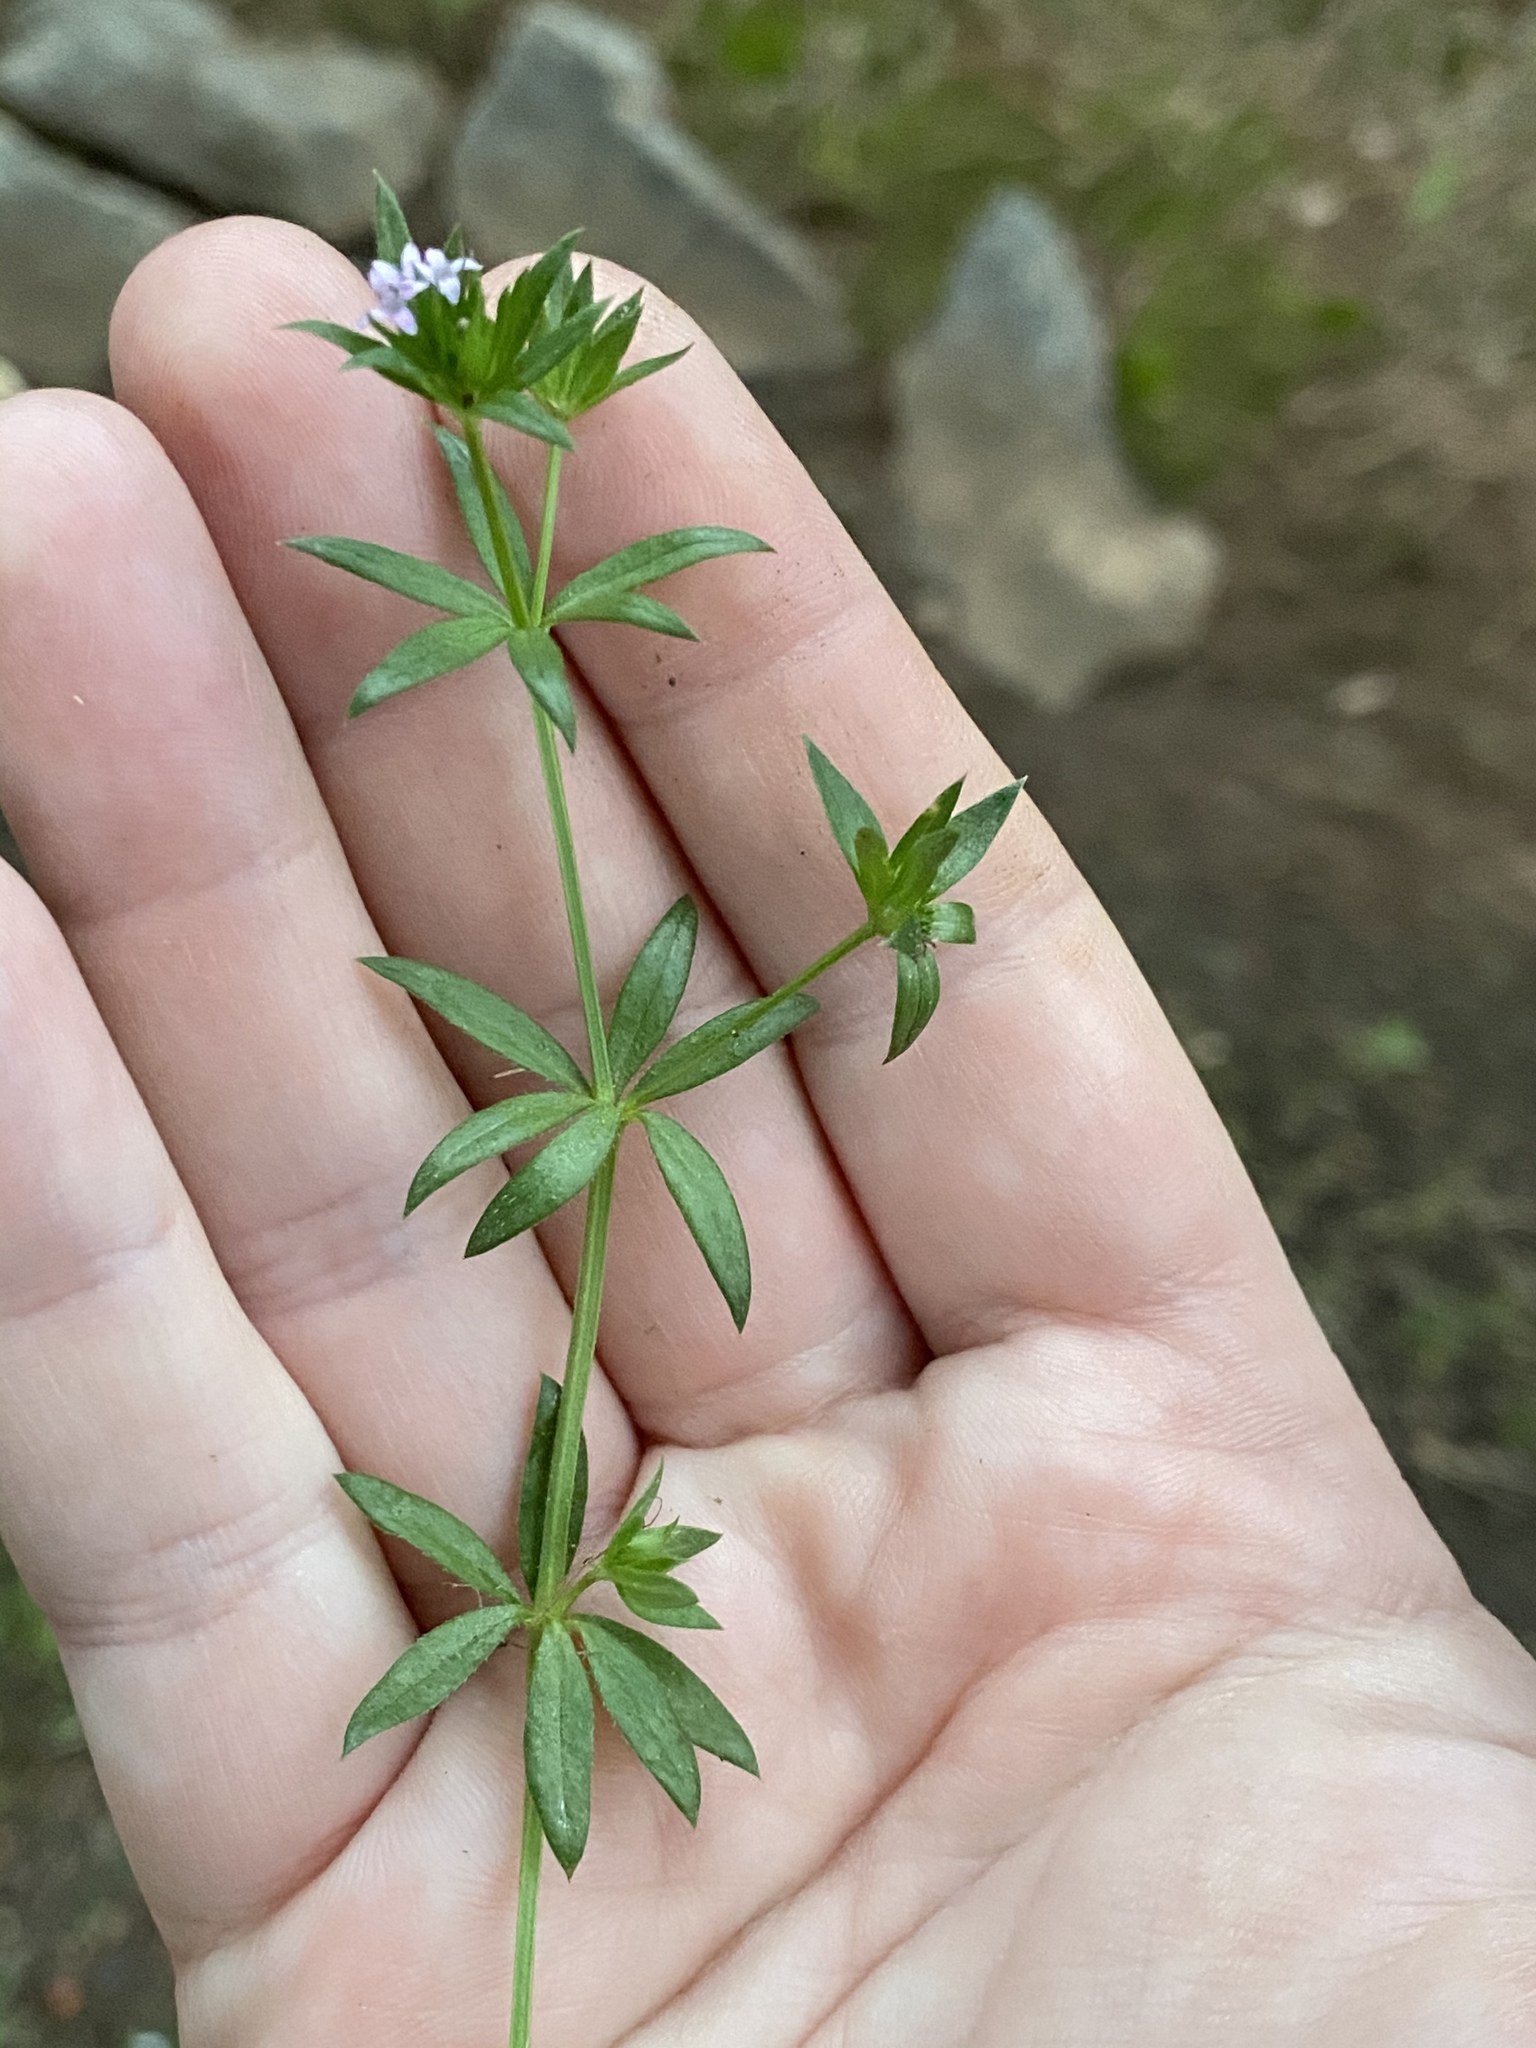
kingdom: Plantae
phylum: Tracheophyta
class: Magnoliopsida
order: Gentianales
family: Rubiaceae
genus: Sherardia
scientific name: Sherardia arvensis
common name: Field madder
